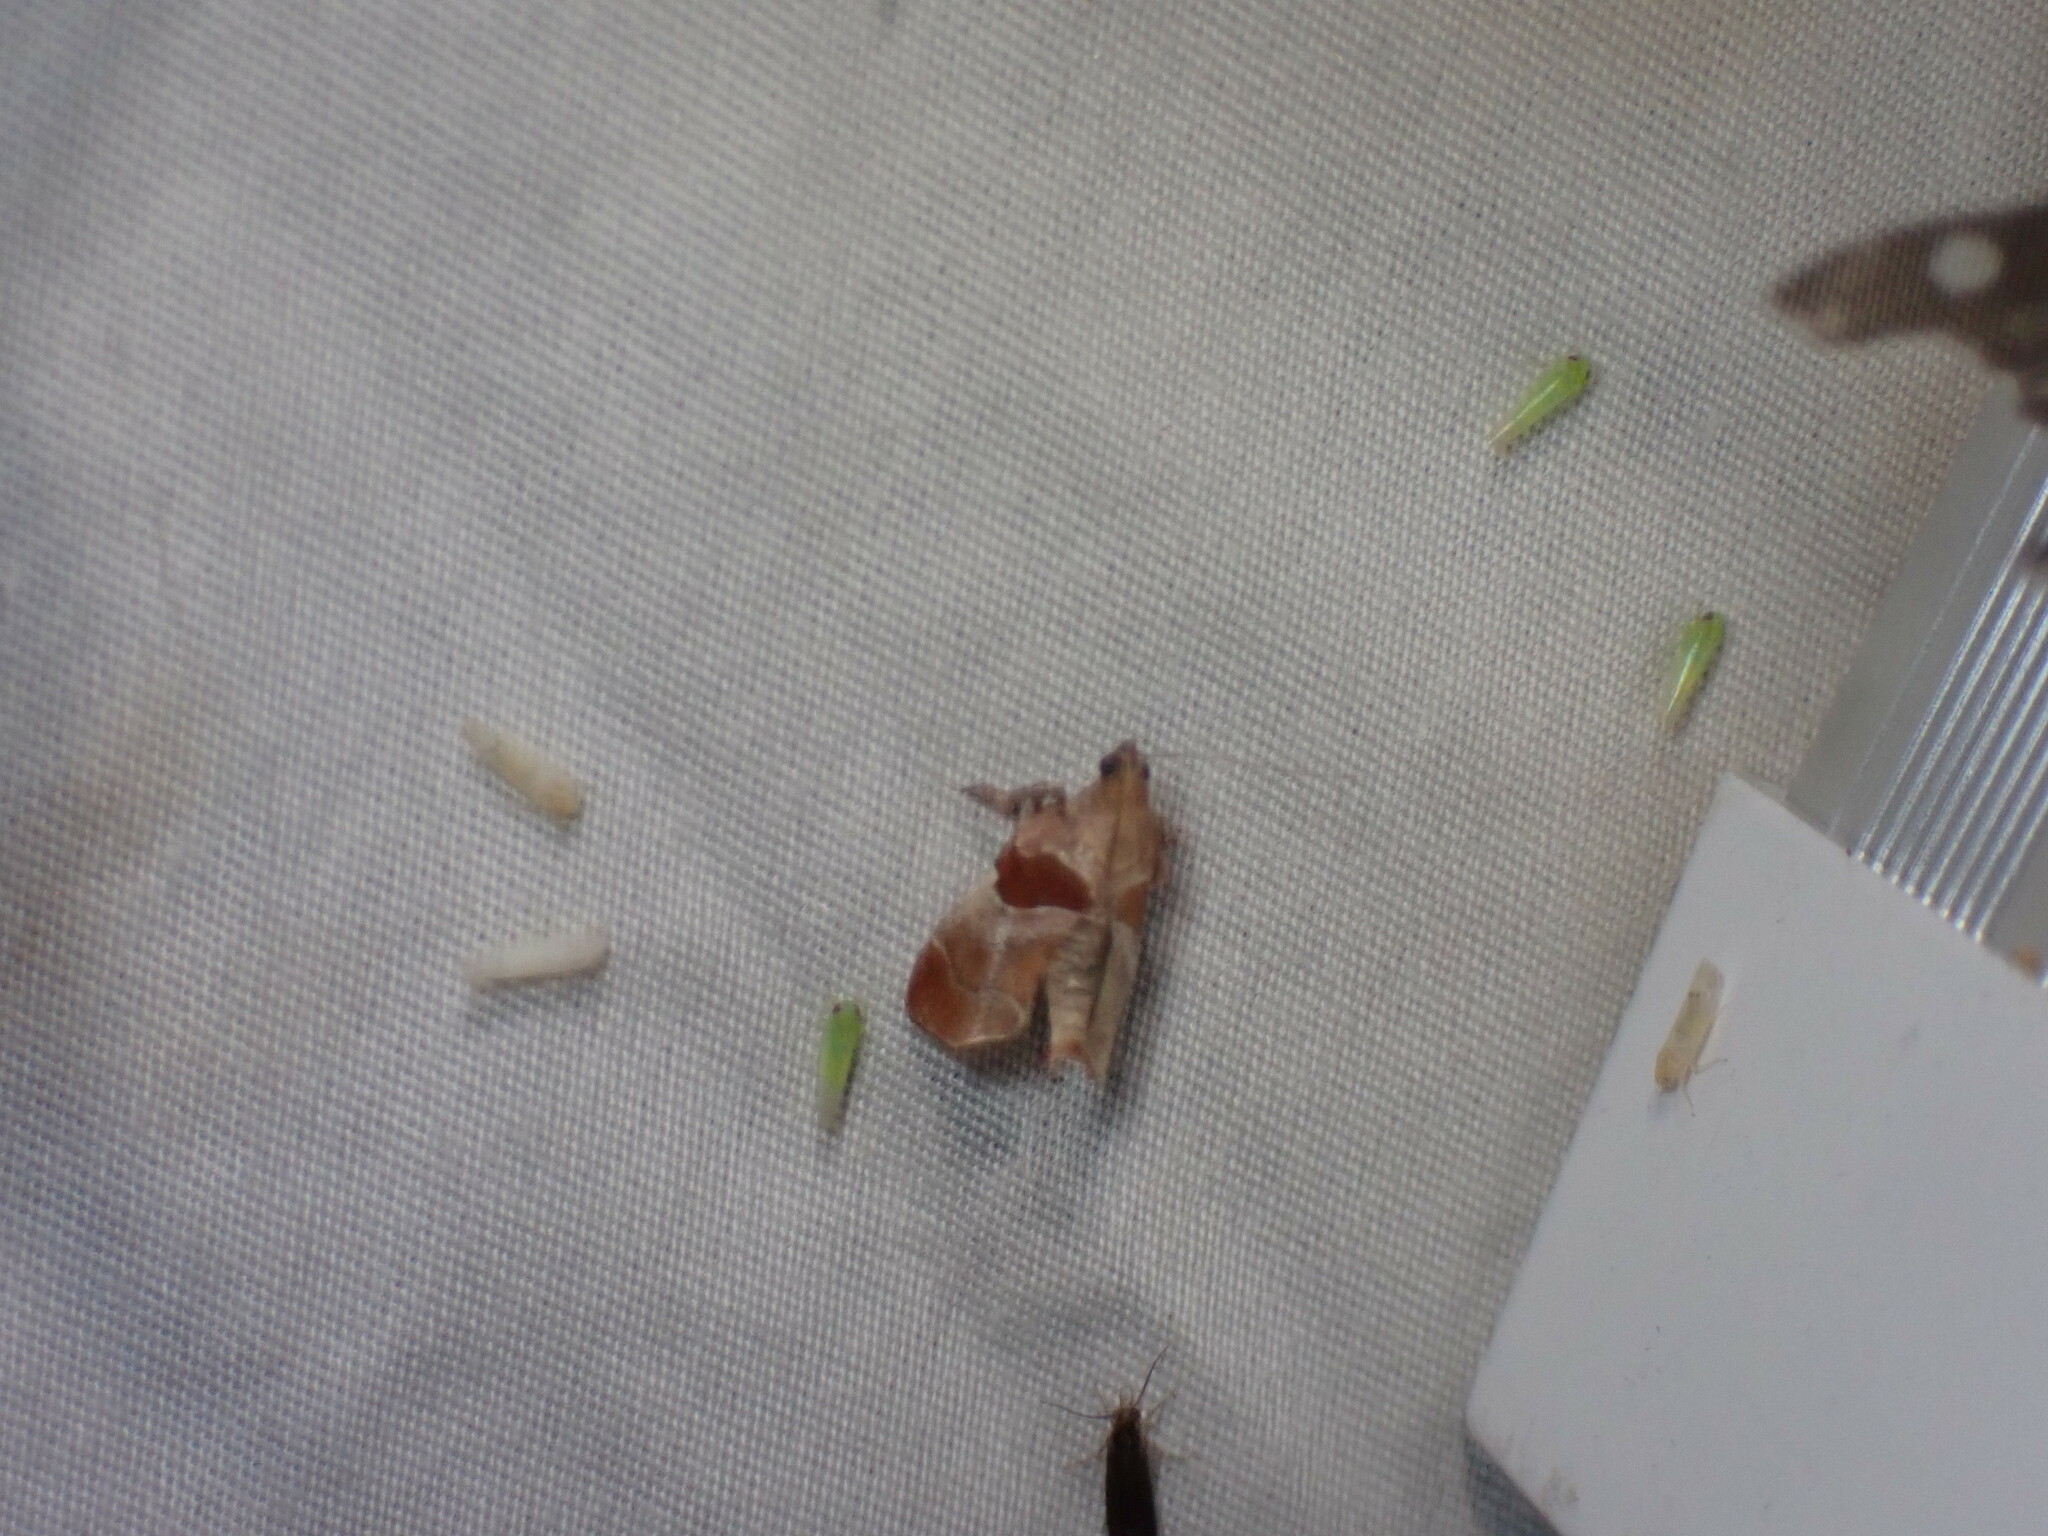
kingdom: Animalia
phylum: Arthropoda
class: Insecta
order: Lepidoptera
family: Pyralidae
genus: Tosale
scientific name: Tosale oviplagalis
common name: Dimorphic tosale moth
